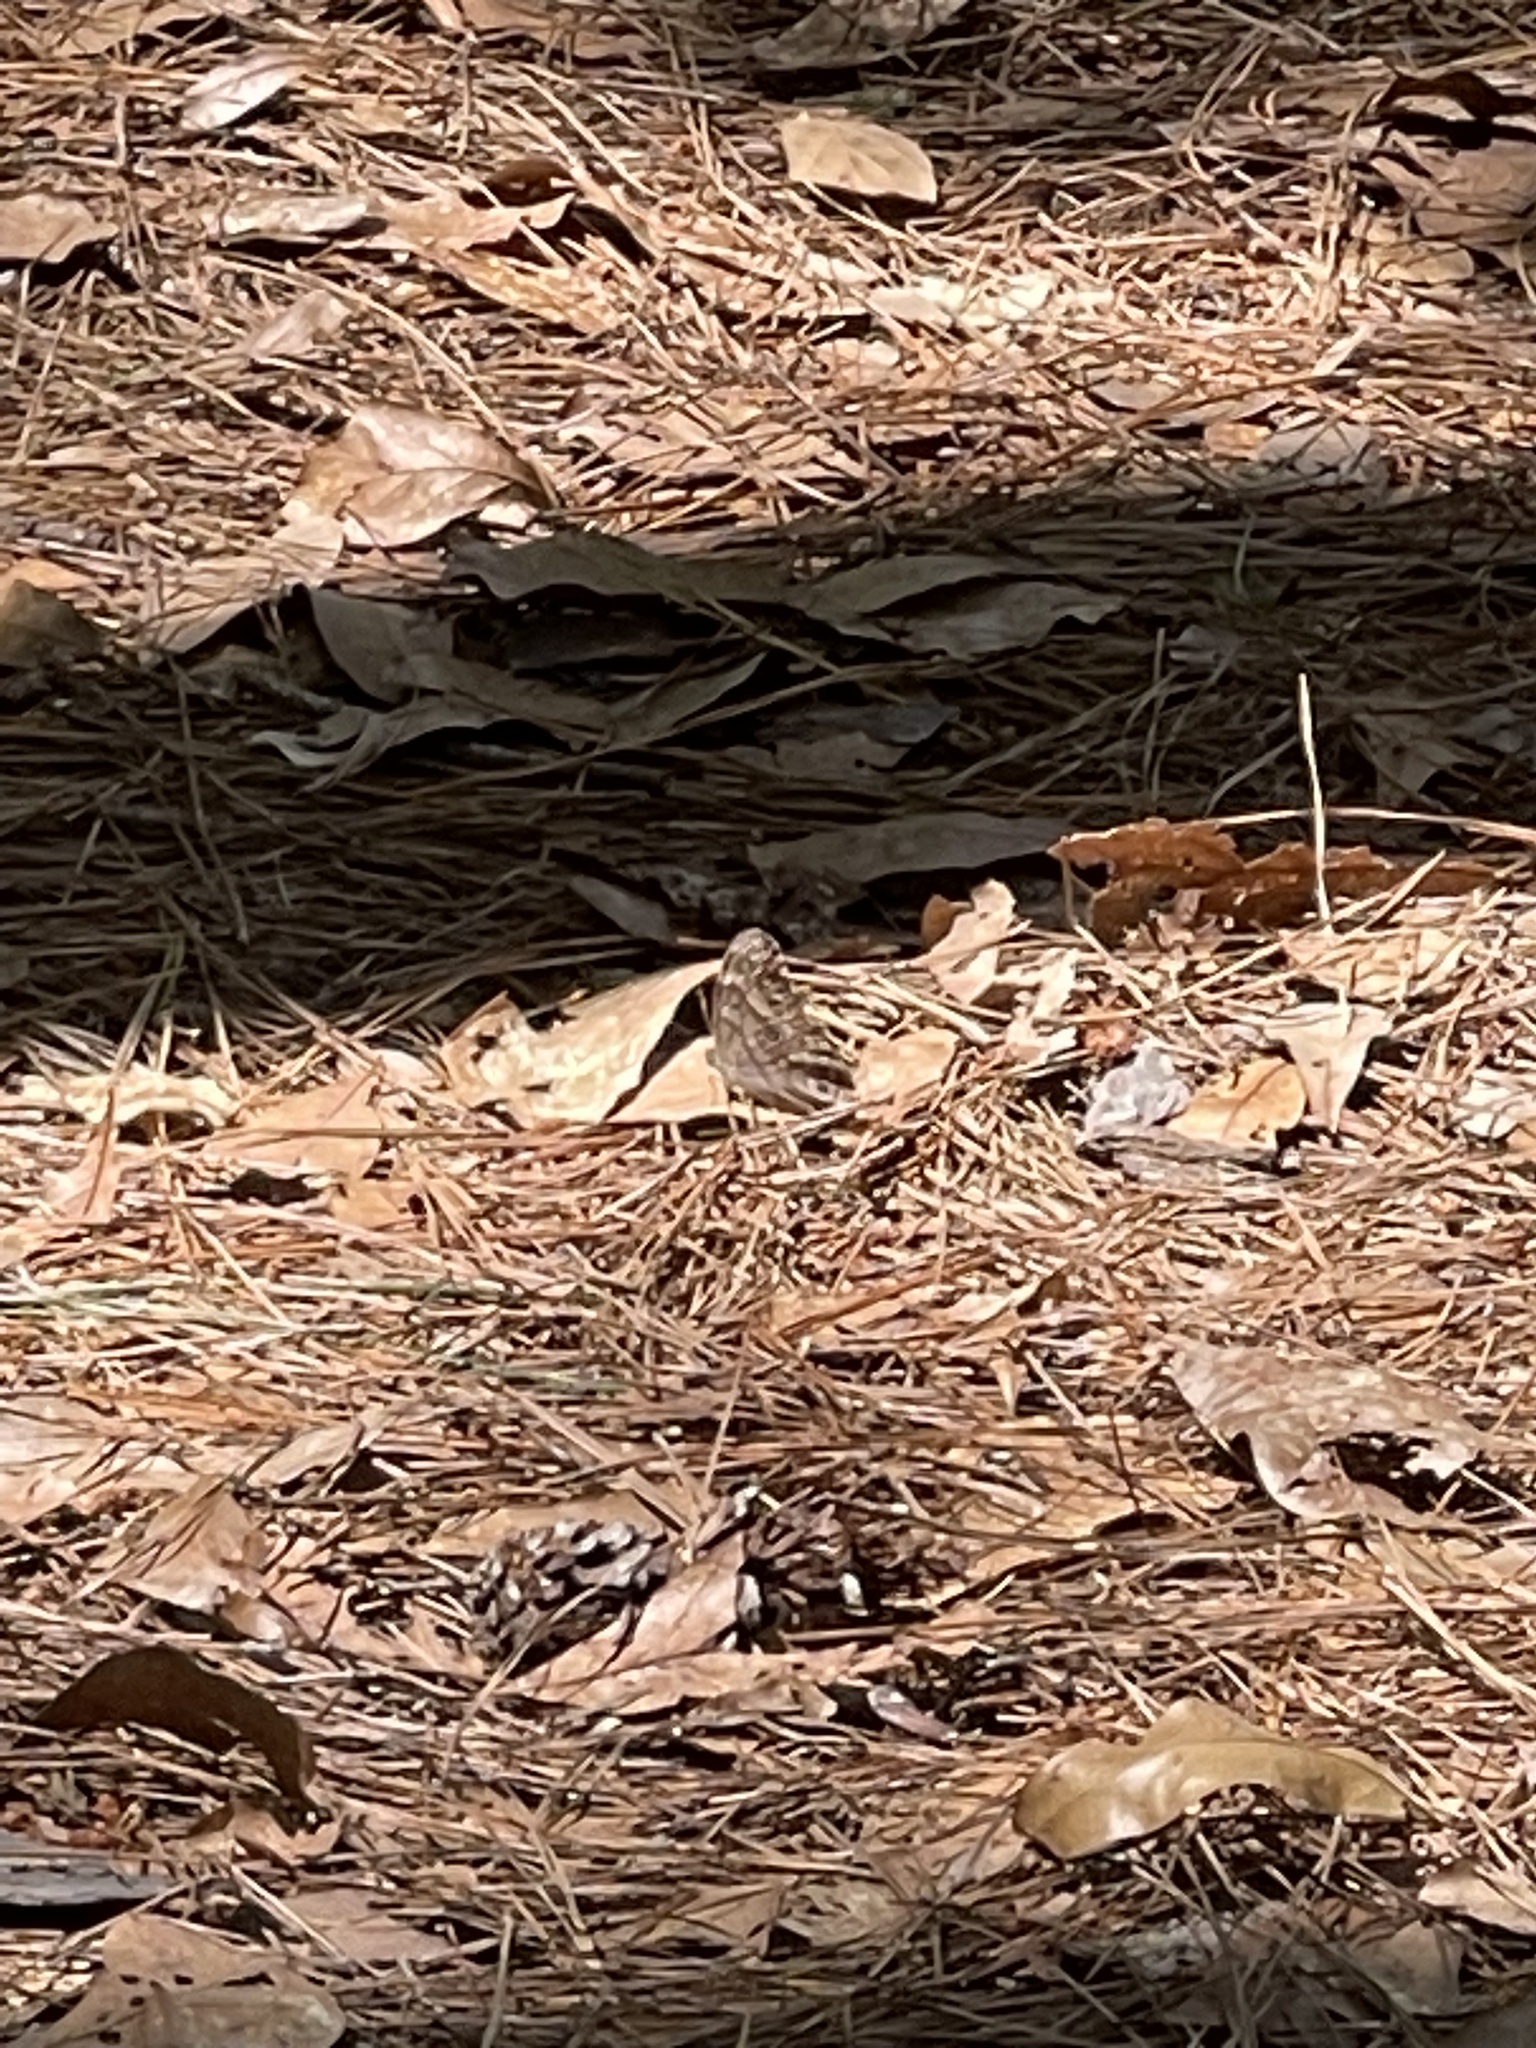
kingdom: Animalia
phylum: Arthropoda
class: Insecta
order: Lepidoptera
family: Nymphalidae
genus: Enodia
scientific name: Enodia
